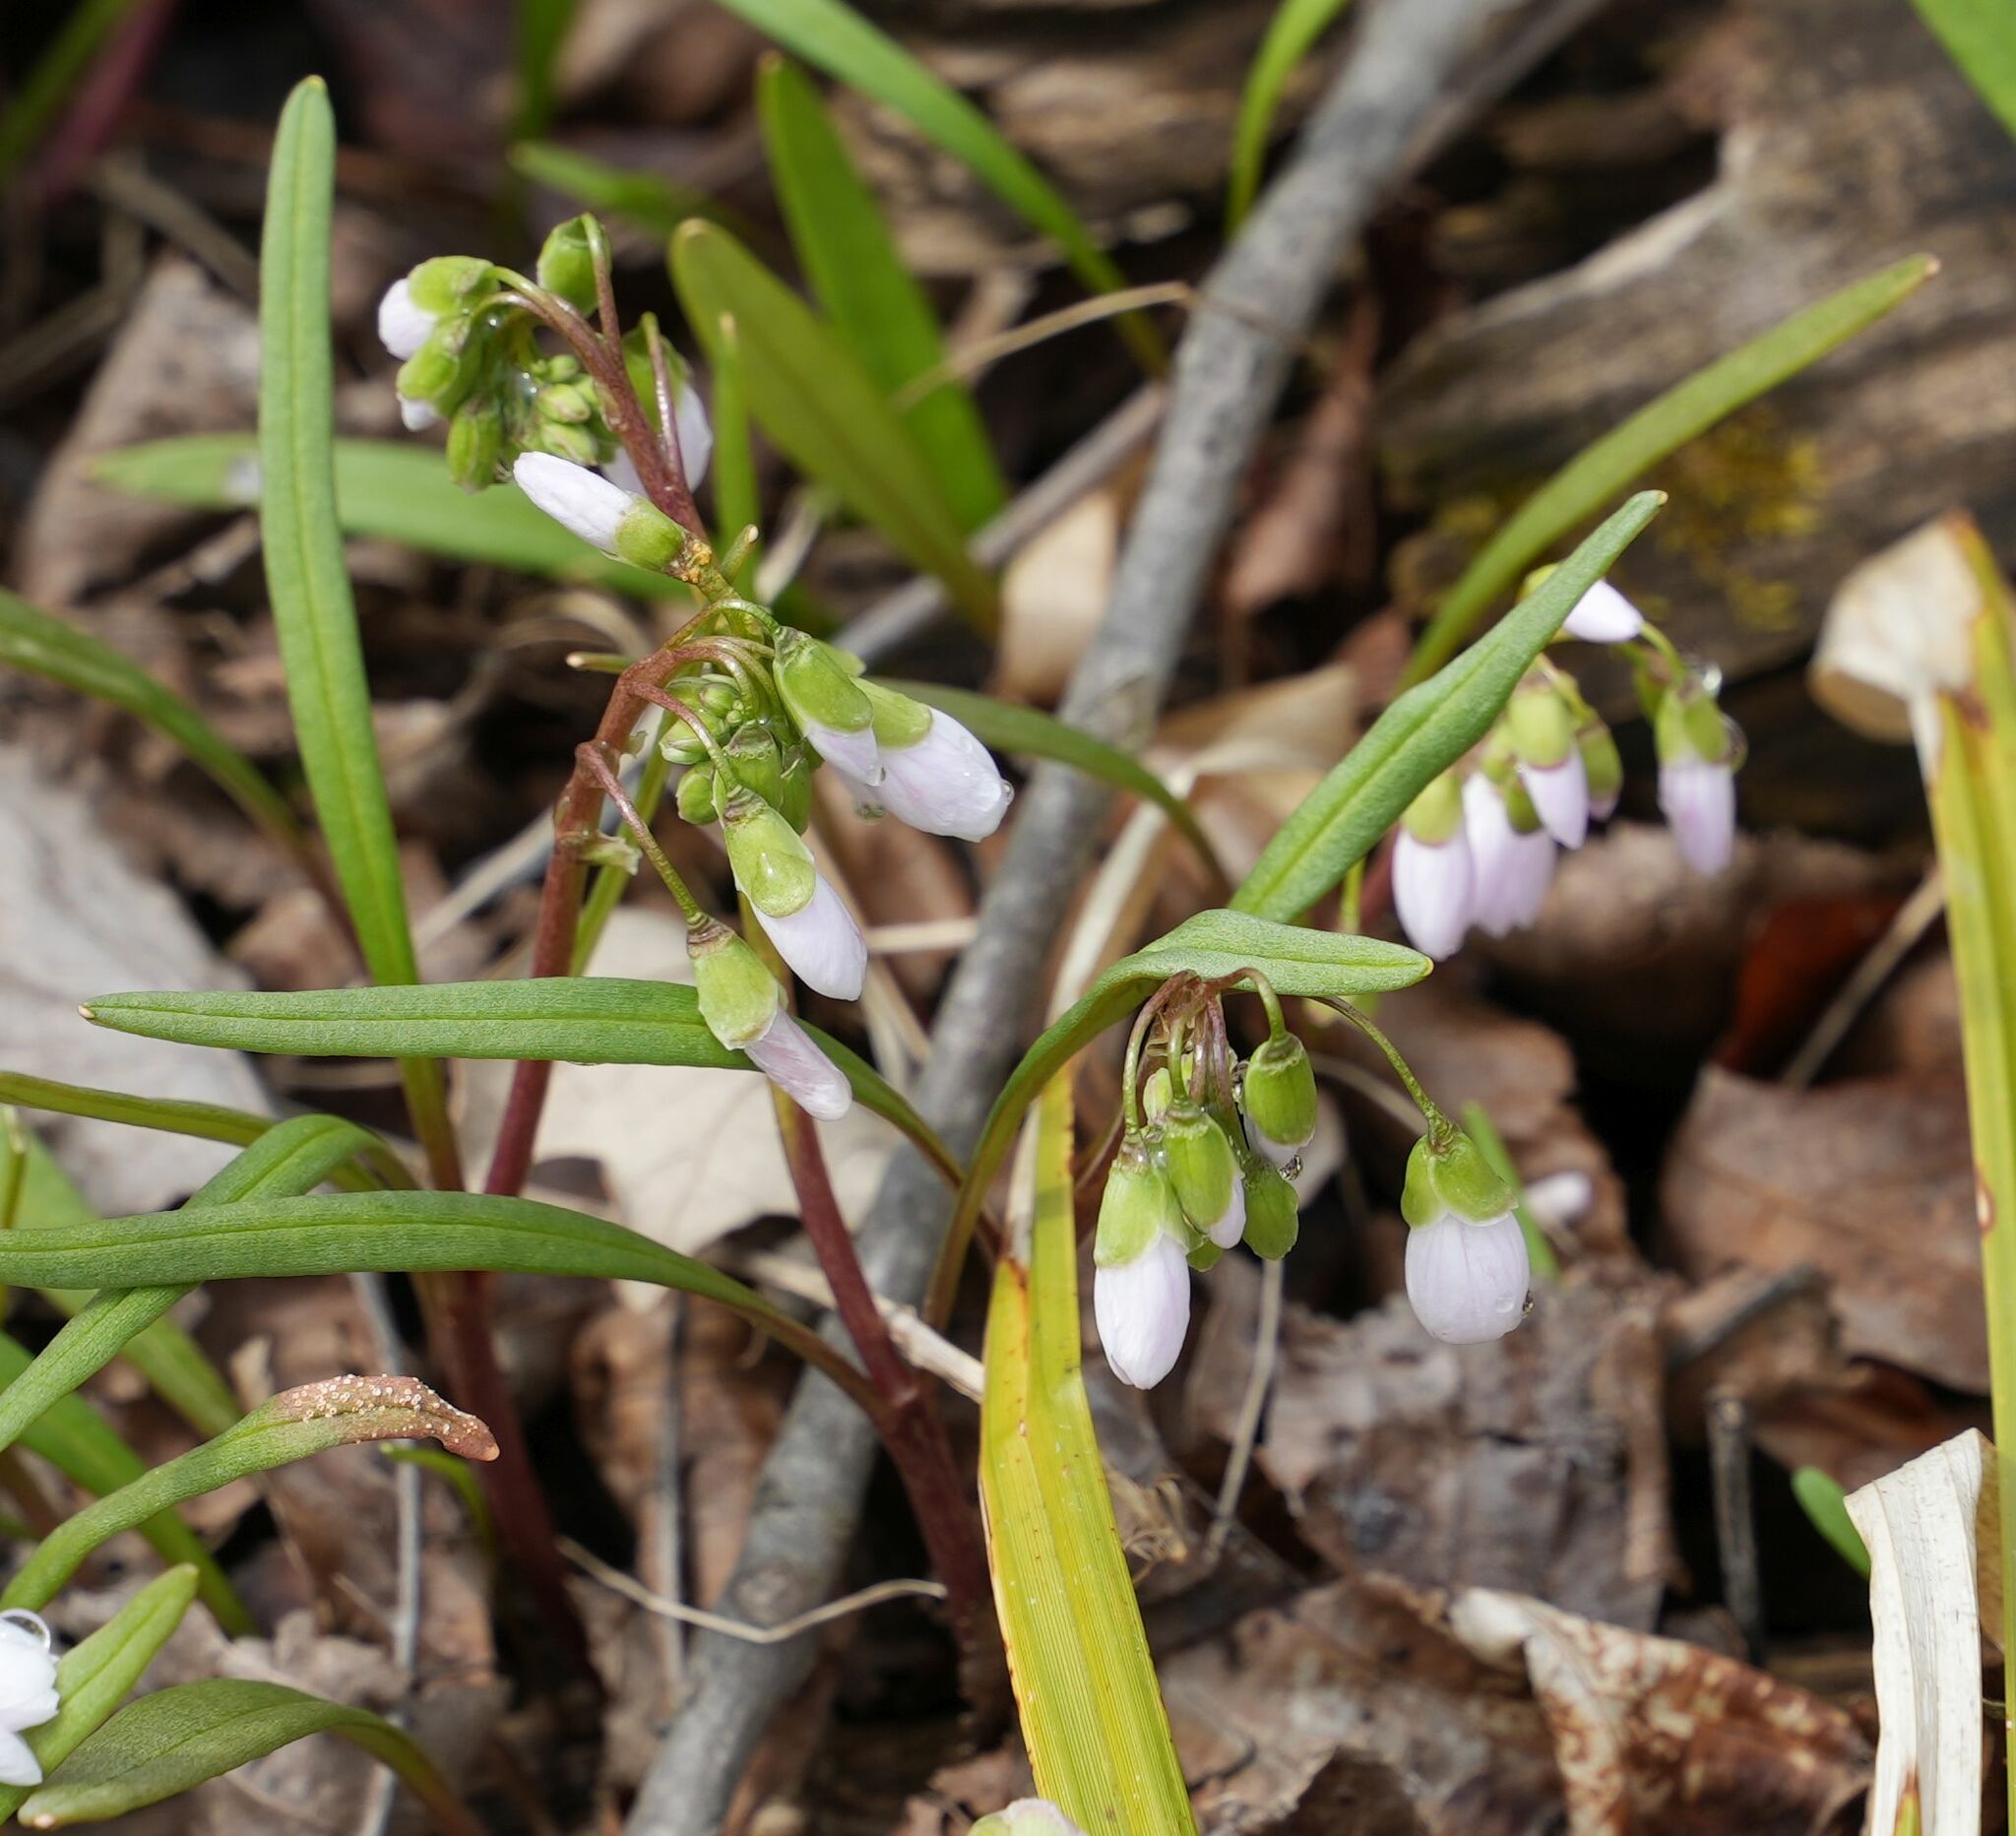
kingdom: Plantae
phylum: Tracheophyta
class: Magnoliopsida
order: Caryophyllales
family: Montiaceae
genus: Claytonia
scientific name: Claytonia virginica
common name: Virginia springbeauty
